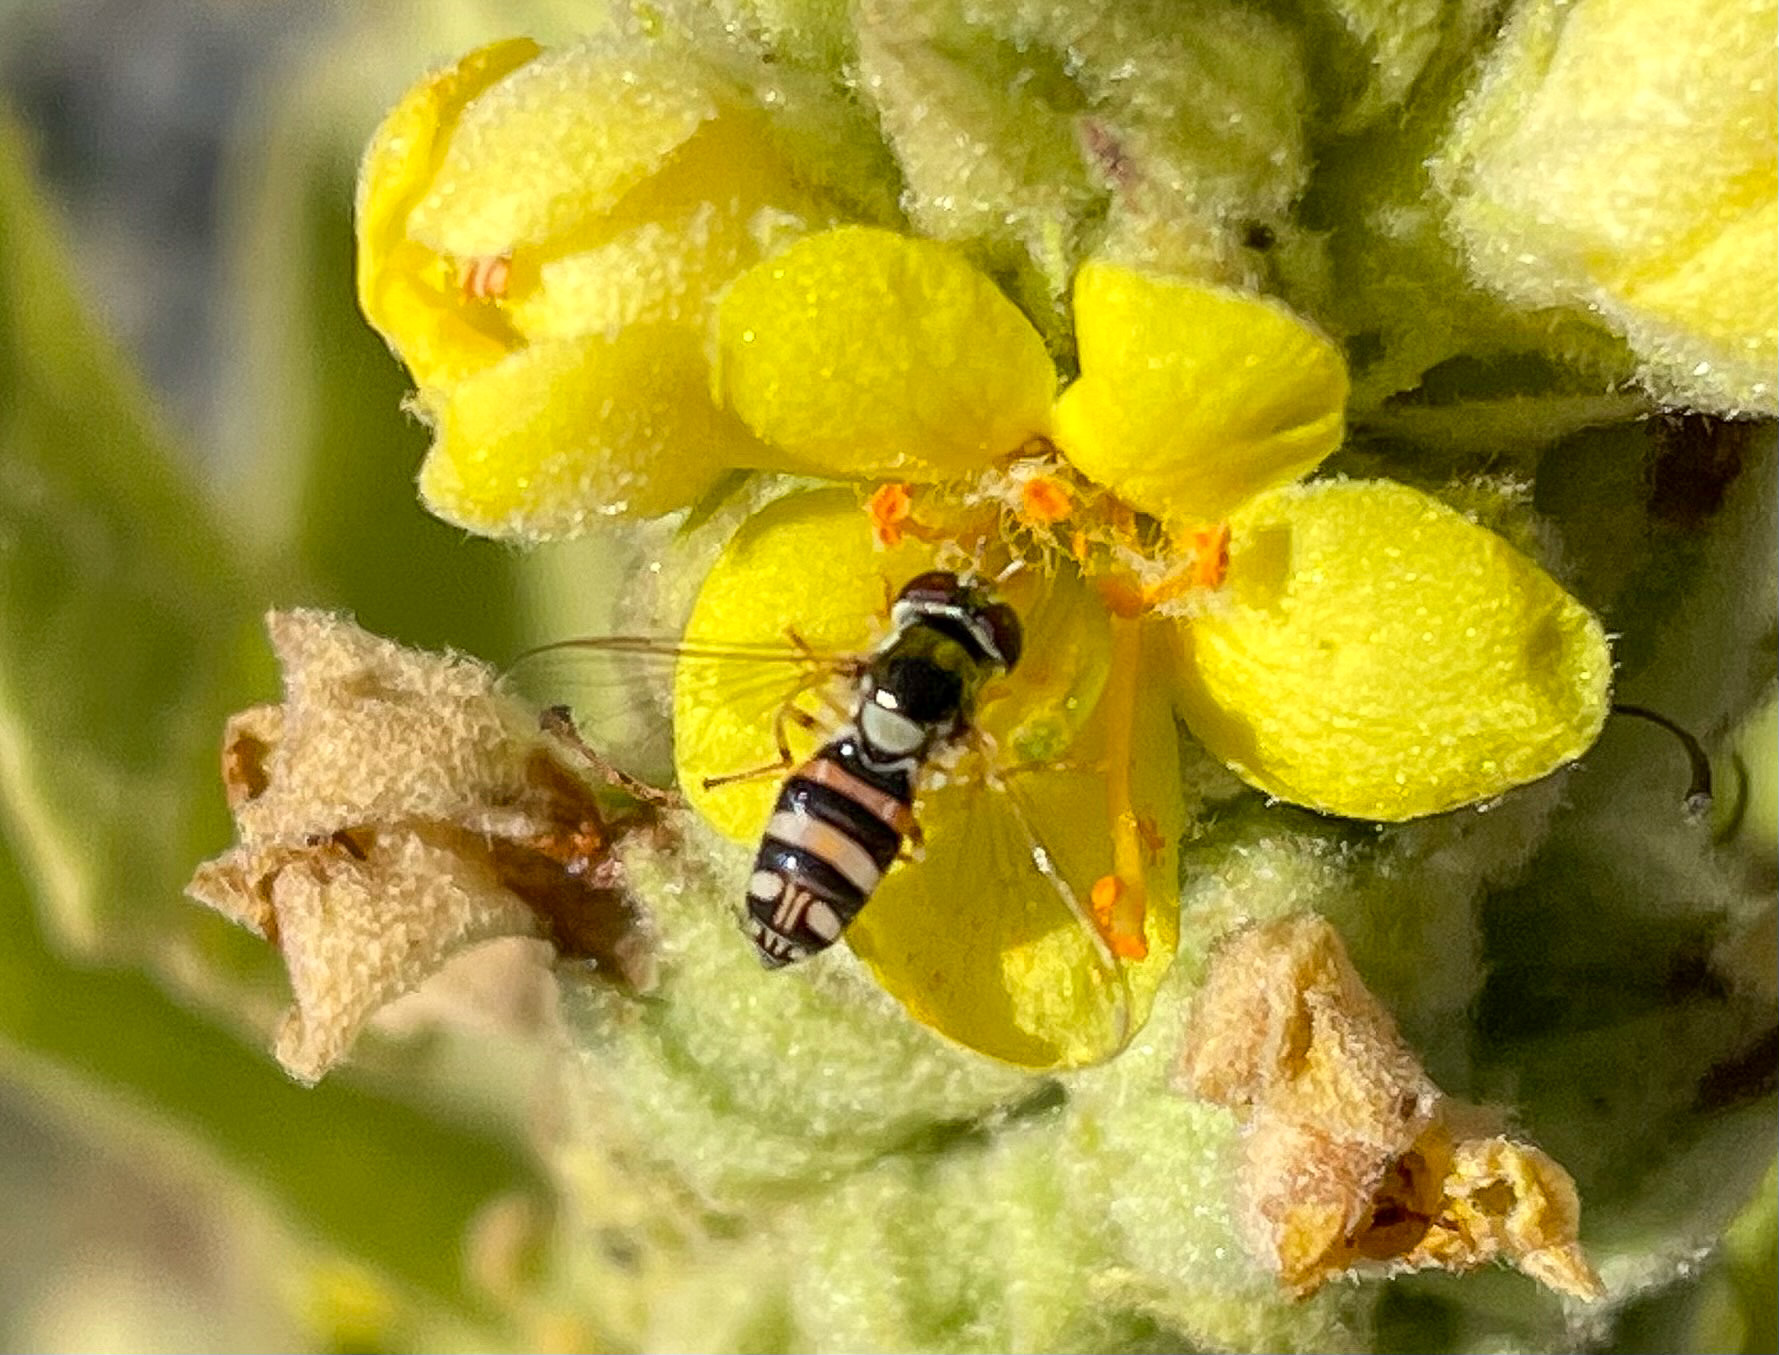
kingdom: Animalia
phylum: Arthropoda
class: Insecta
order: Diptera
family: Syrphidae
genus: Allograpta
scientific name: Allograpta exotica
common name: Syrphid fly
